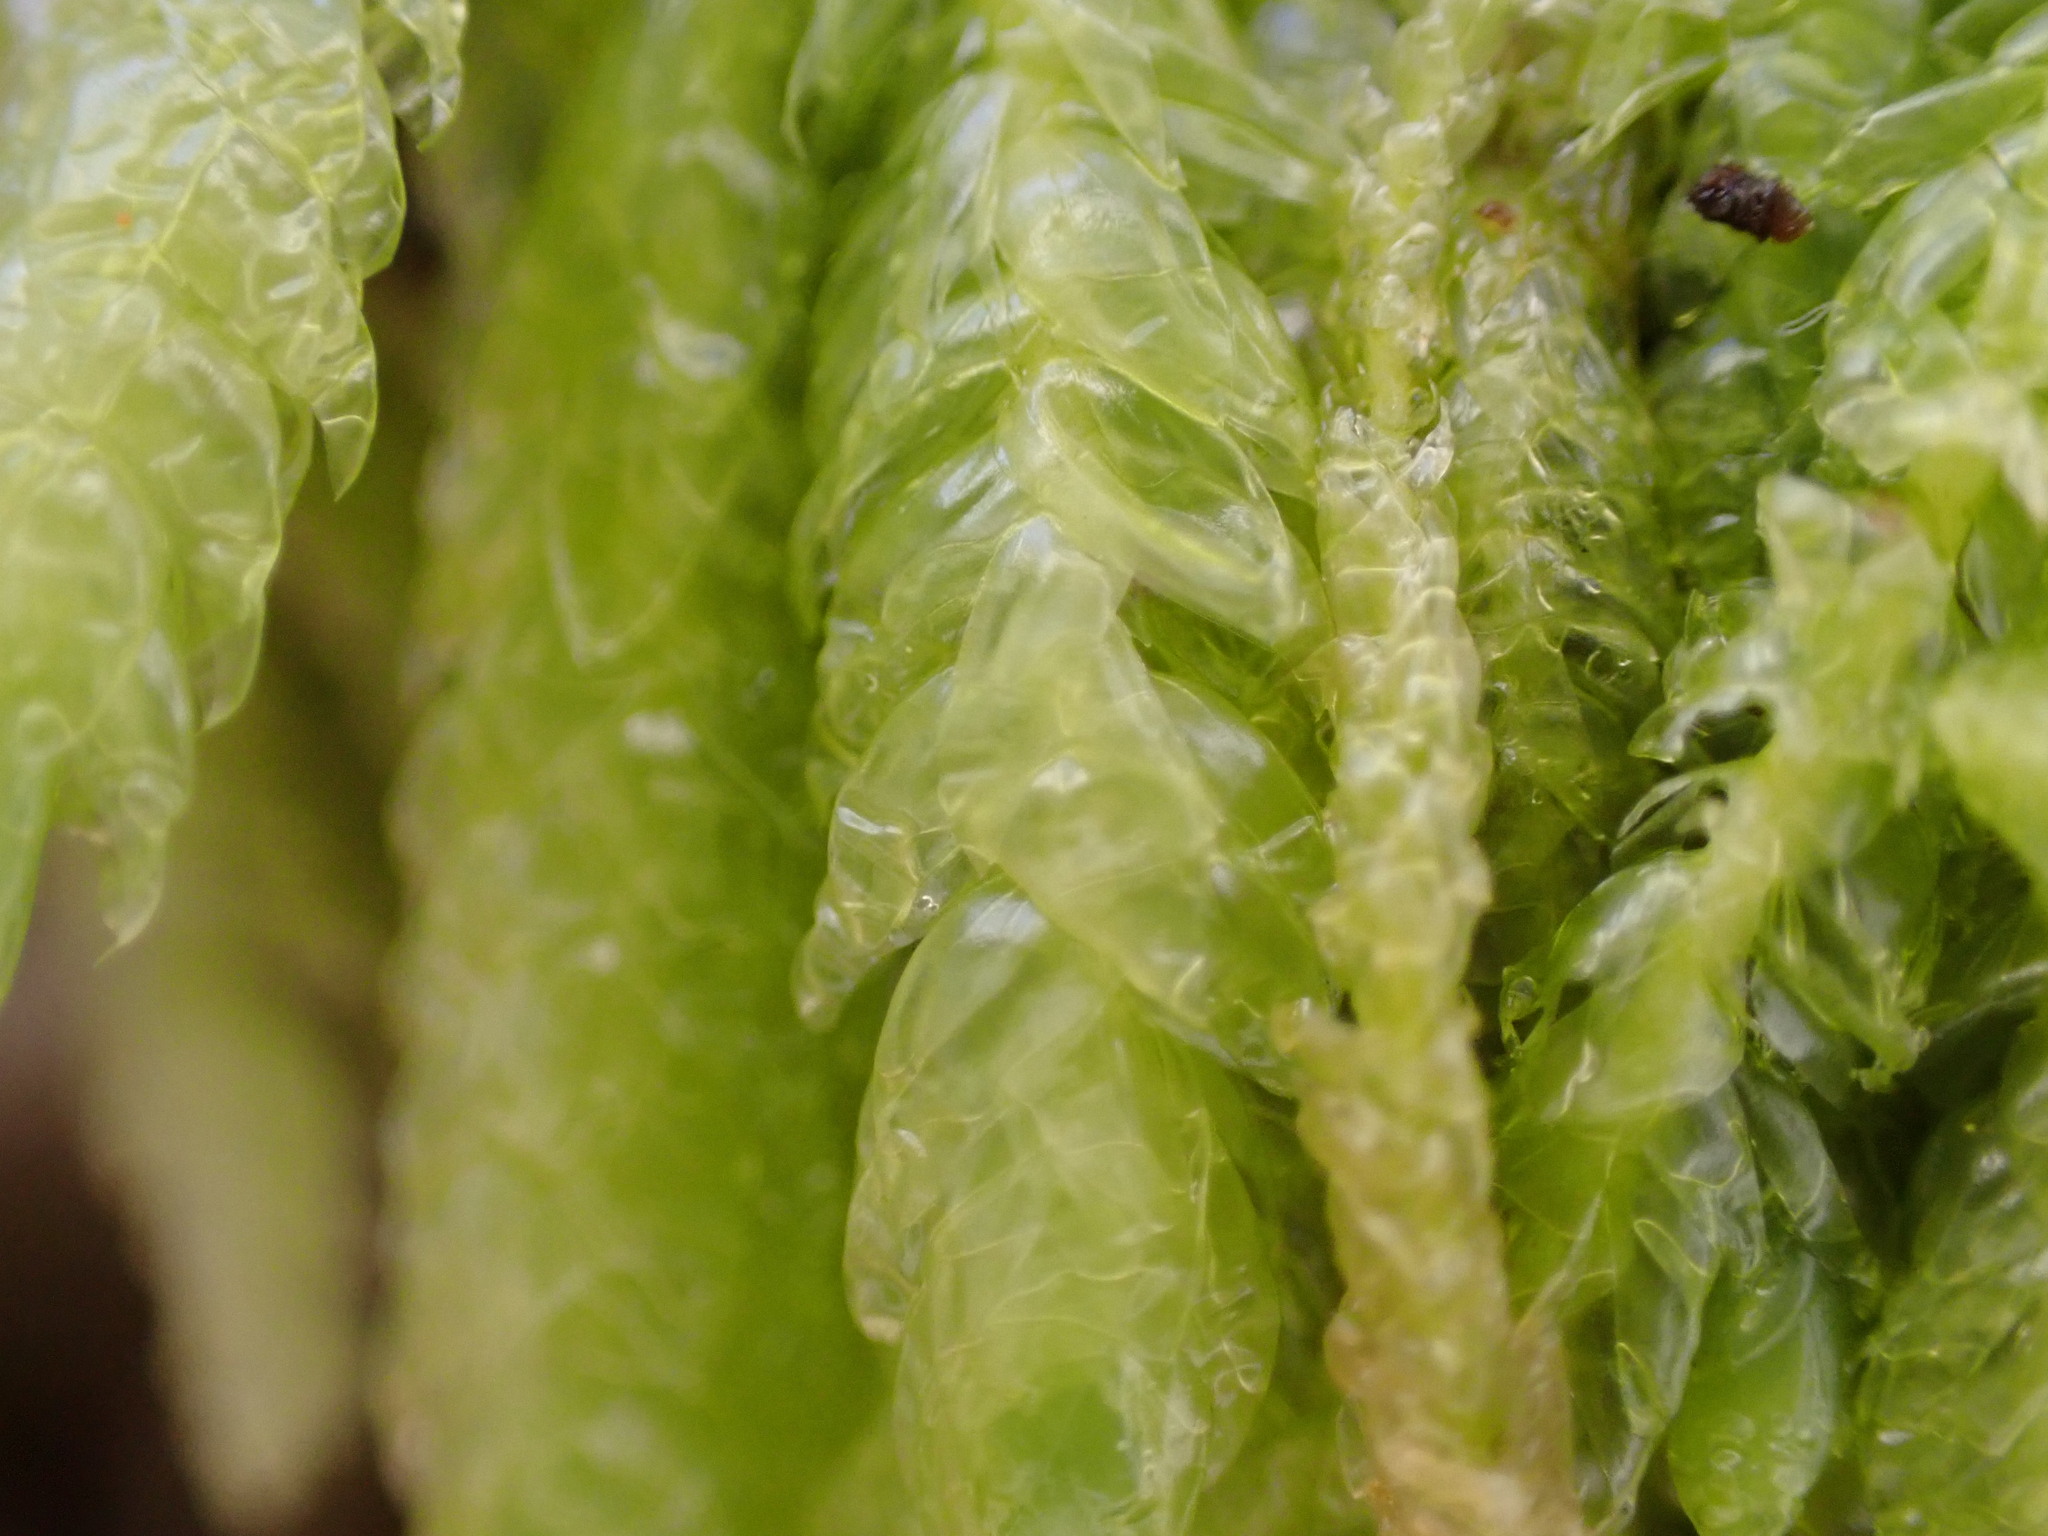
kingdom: Plantae
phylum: Bryophyta
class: Bryopsida
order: Hypnales
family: Plagiotheciaceae
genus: Plagiothecium
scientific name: Plagiothecium undulatum
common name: Waved silk-moss
